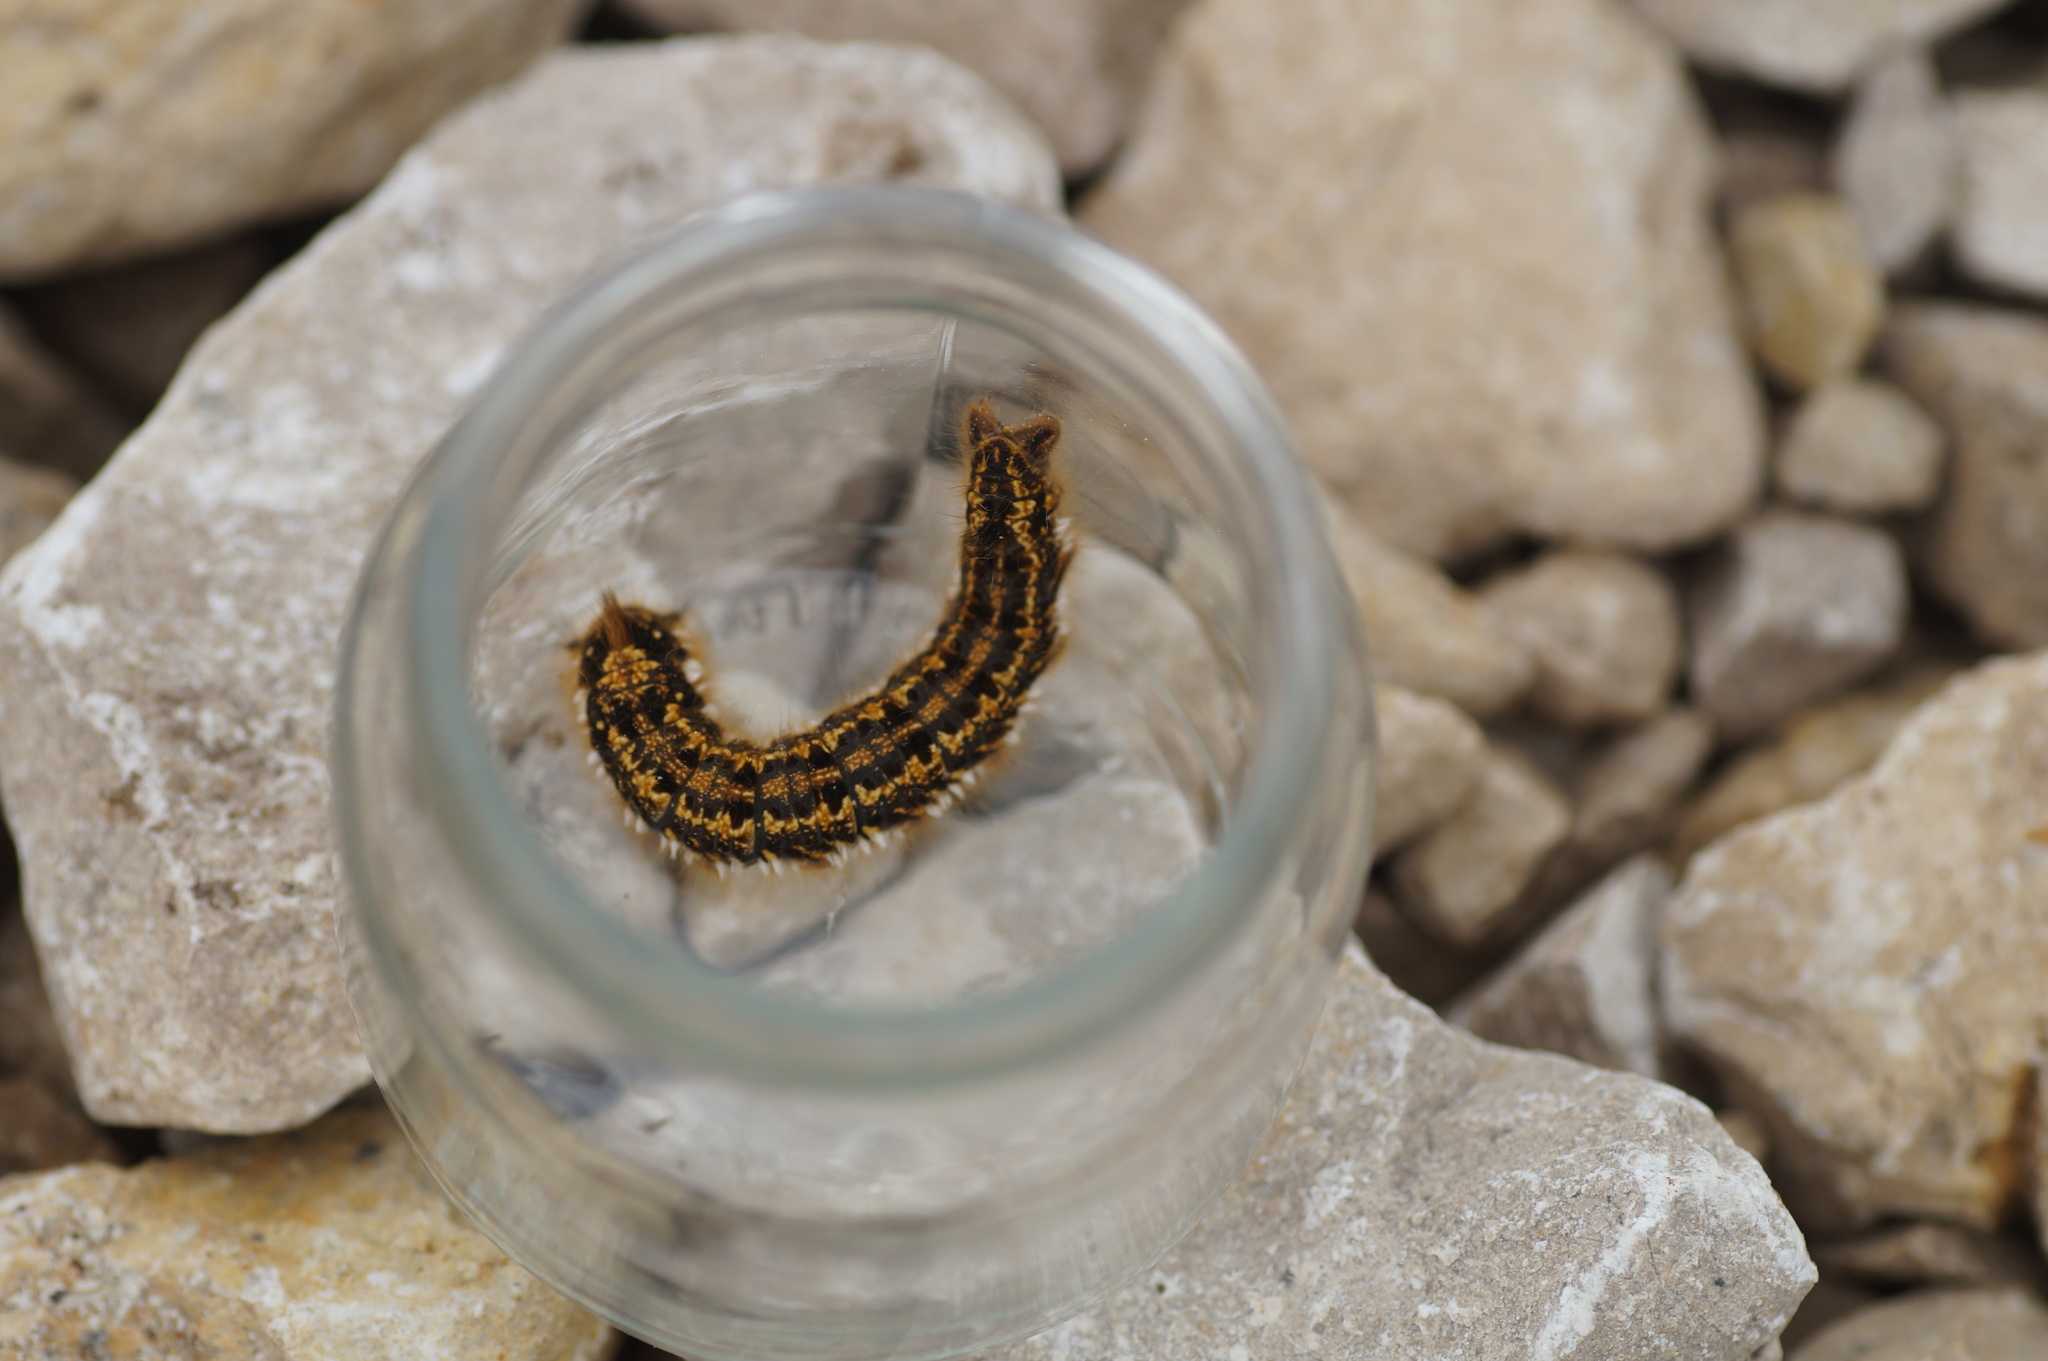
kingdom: Animalia
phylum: Arthropoda
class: Insecta
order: Lepidoptera
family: Lasiocampidae
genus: Euthrix
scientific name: Euthrix potatoria
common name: Drinker
